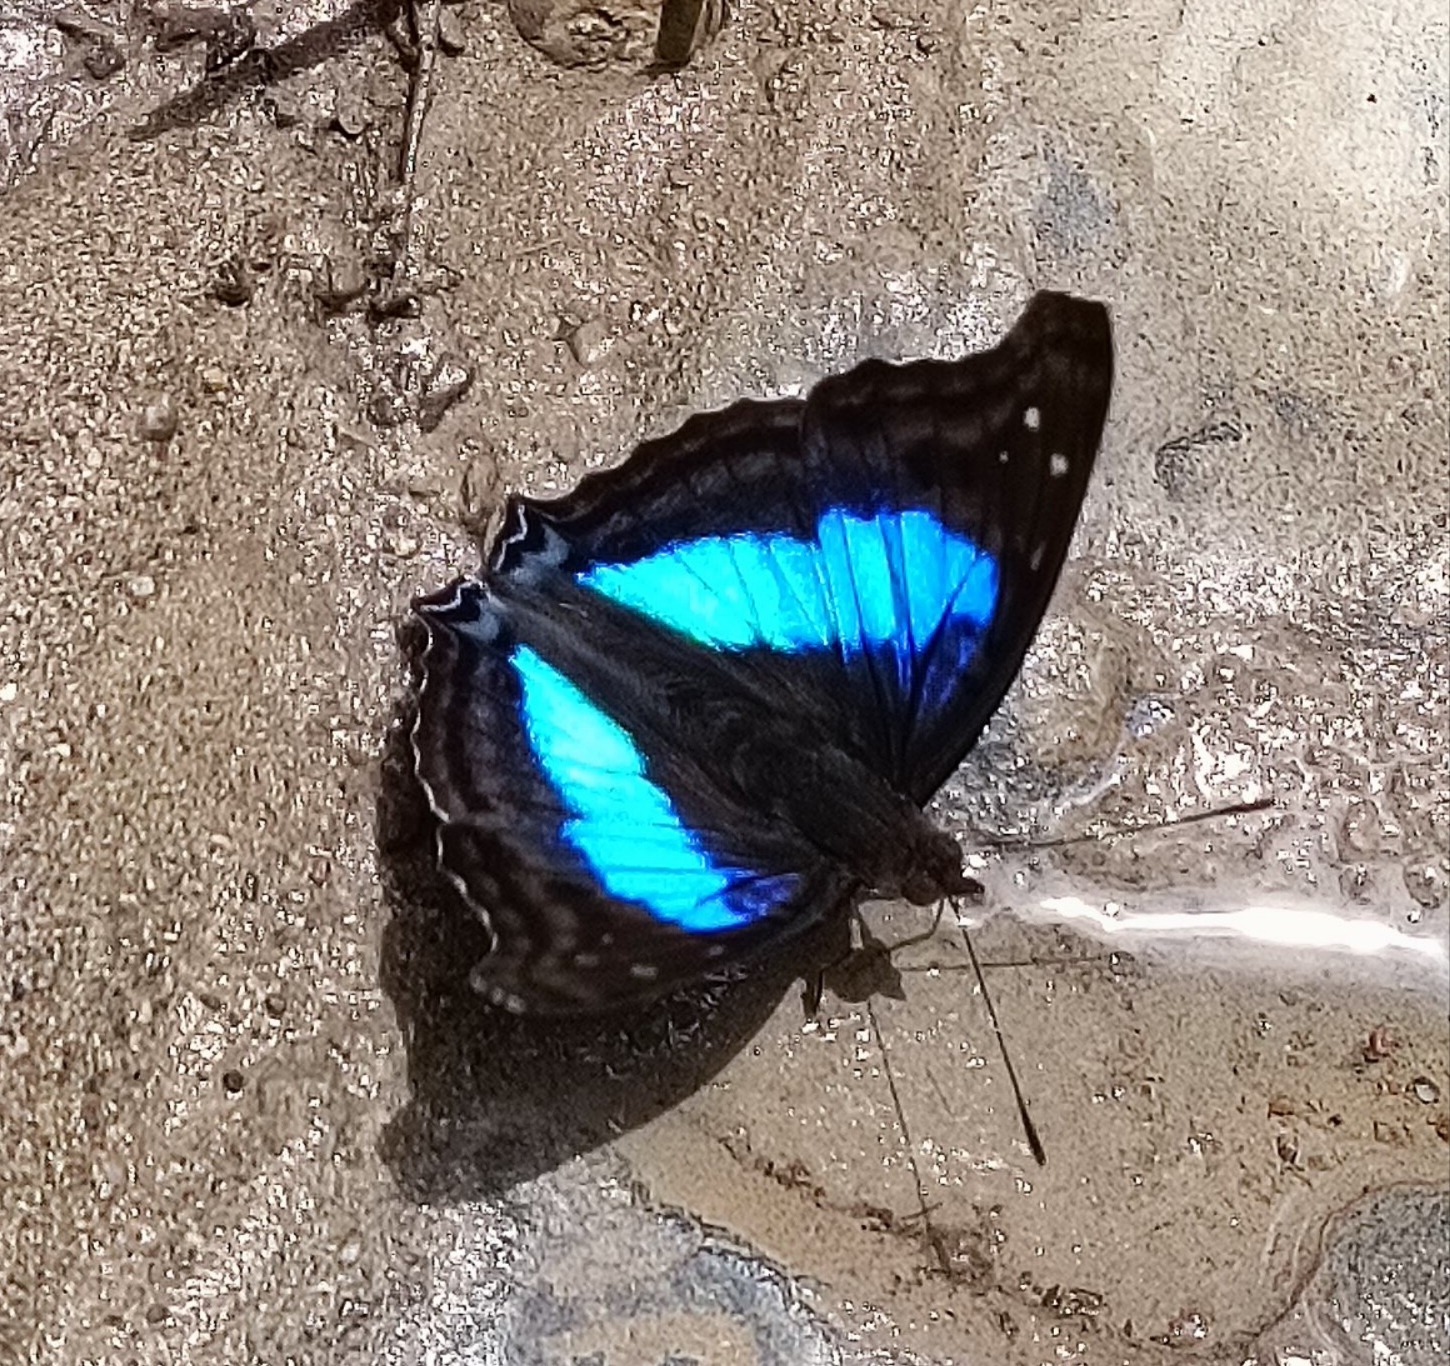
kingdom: Animalia
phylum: Arthropoda
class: Insecta
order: Lepidoptera
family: Nymphalidae
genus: Doxocopa
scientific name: Doxocopa laurentia
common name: Turquoise emperor
